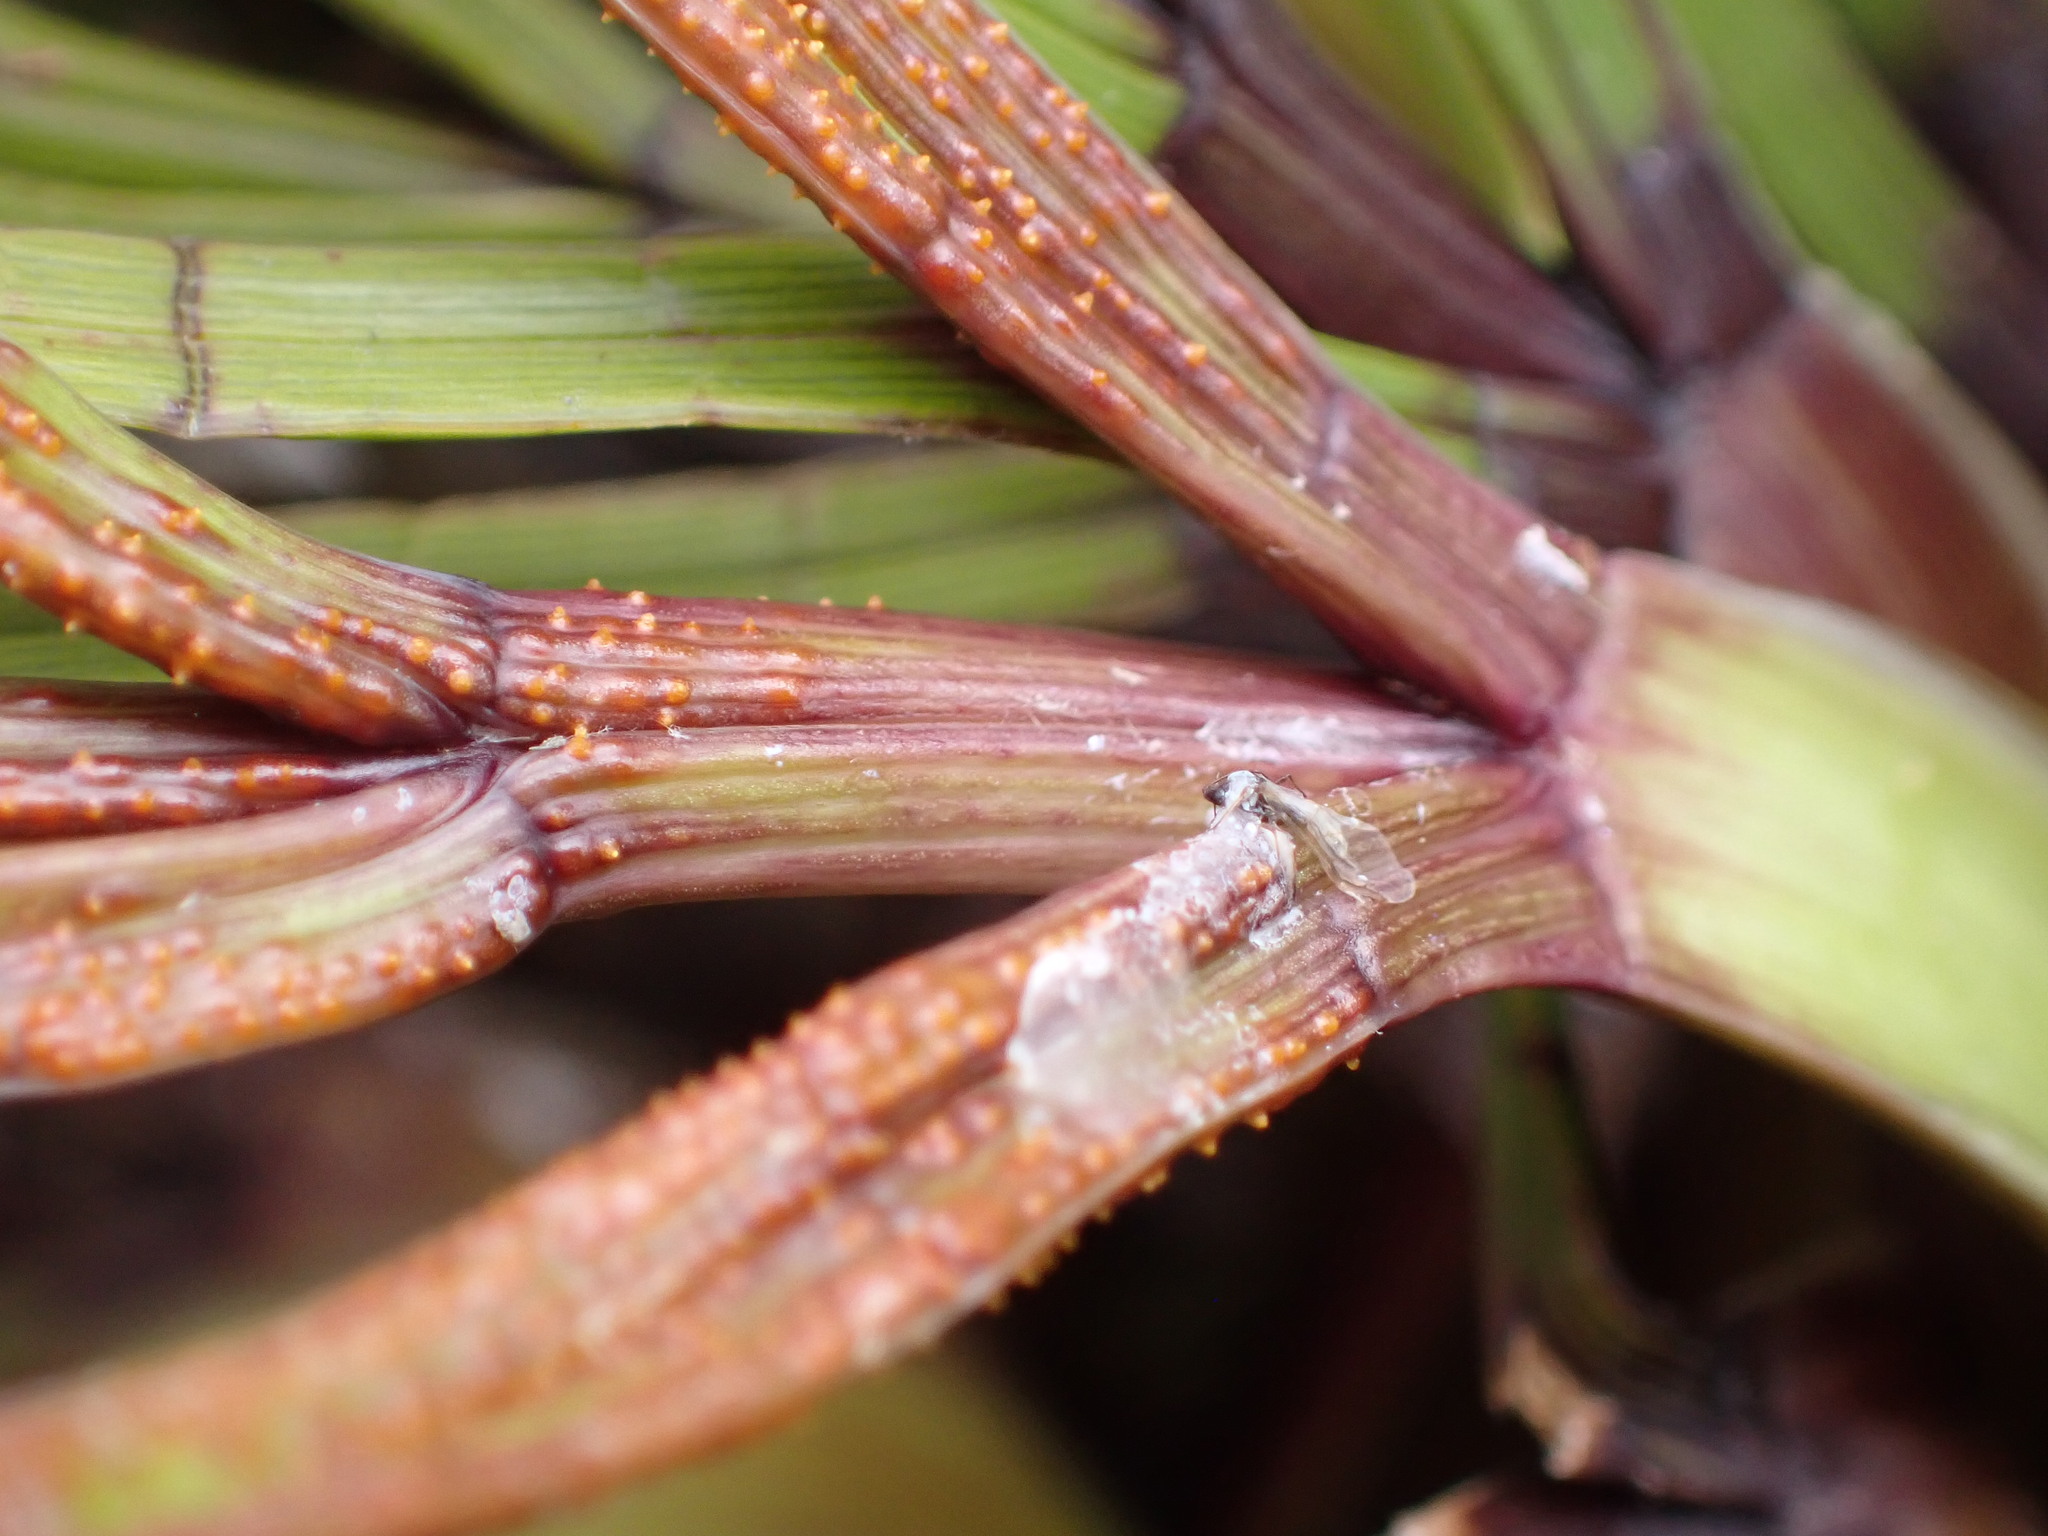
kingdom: Fungi
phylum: Basidiomycota
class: Pucciniomycetes
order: Pucciniales
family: Pucciniaceae
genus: Puccinia
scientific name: Puccinia grahamii
